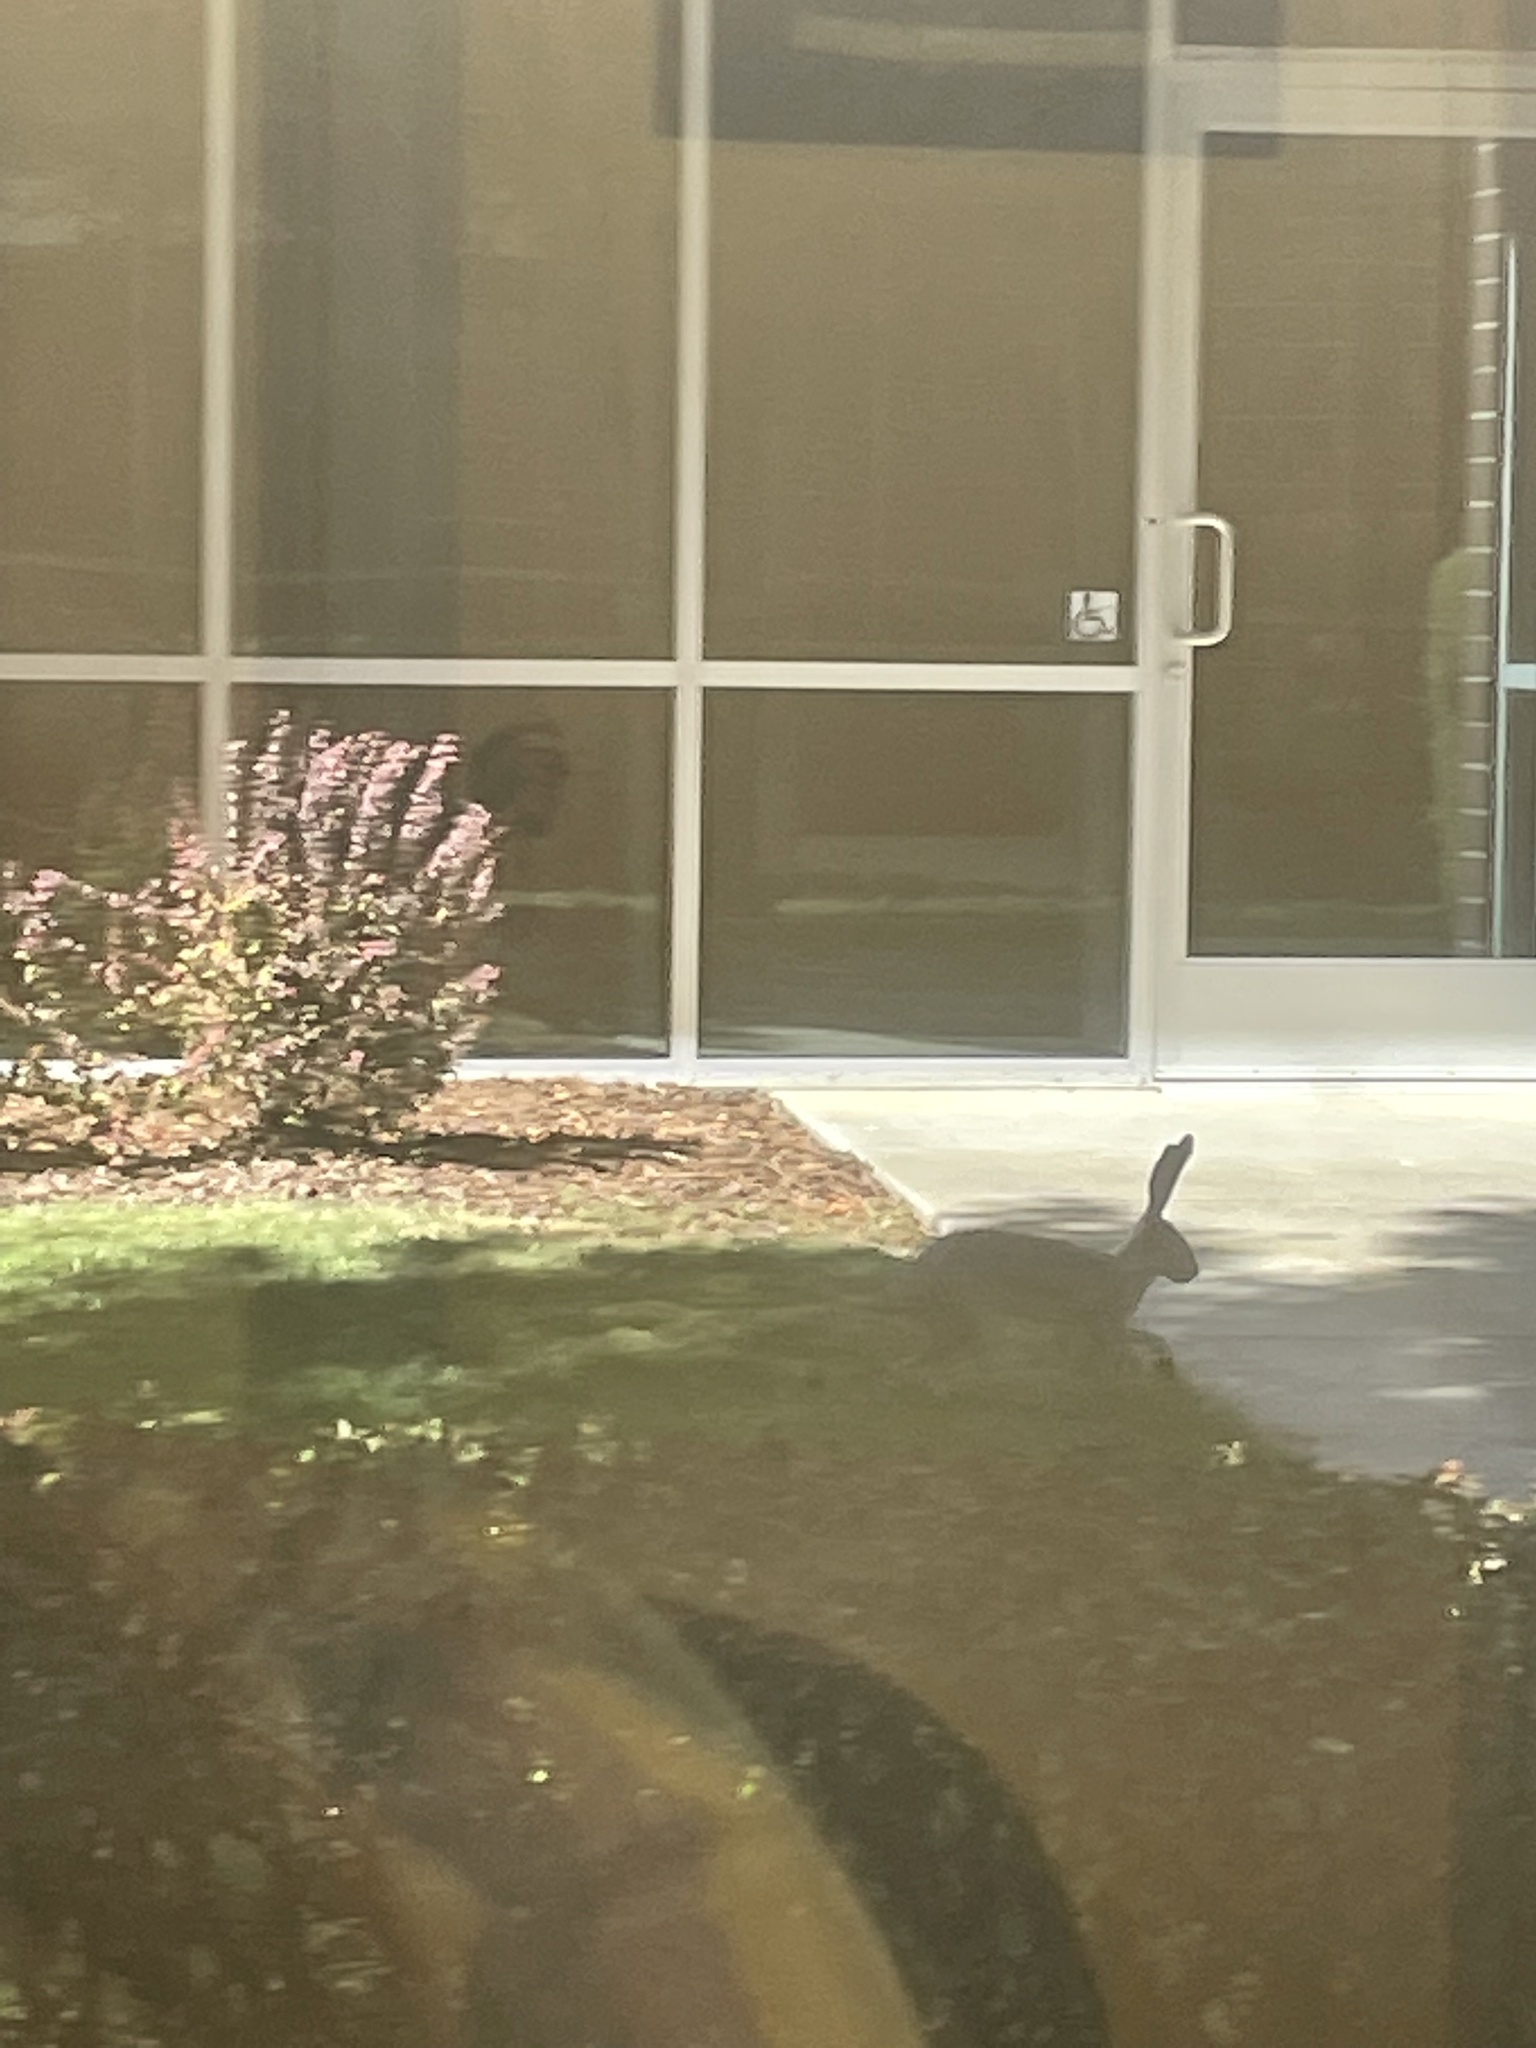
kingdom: Animalia
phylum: Chordata
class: Mammalia
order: Lagomorpha
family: Leporidae
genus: Lepus
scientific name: Lepus californicus
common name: Black-tailed jackrabbit
